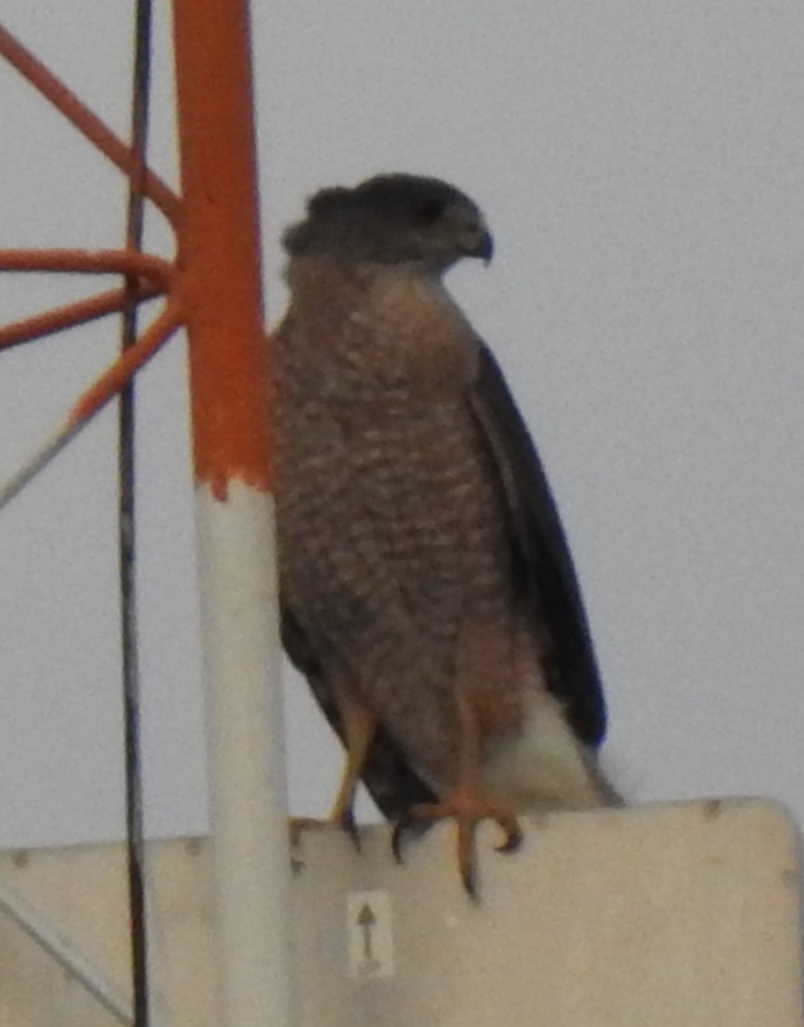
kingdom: Animalia
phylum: Chordata
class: Aves
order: Accipitriformes
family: Accipitridae
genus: Accipiter
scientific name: Accipiter cooperii
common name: Cooper's hawk
